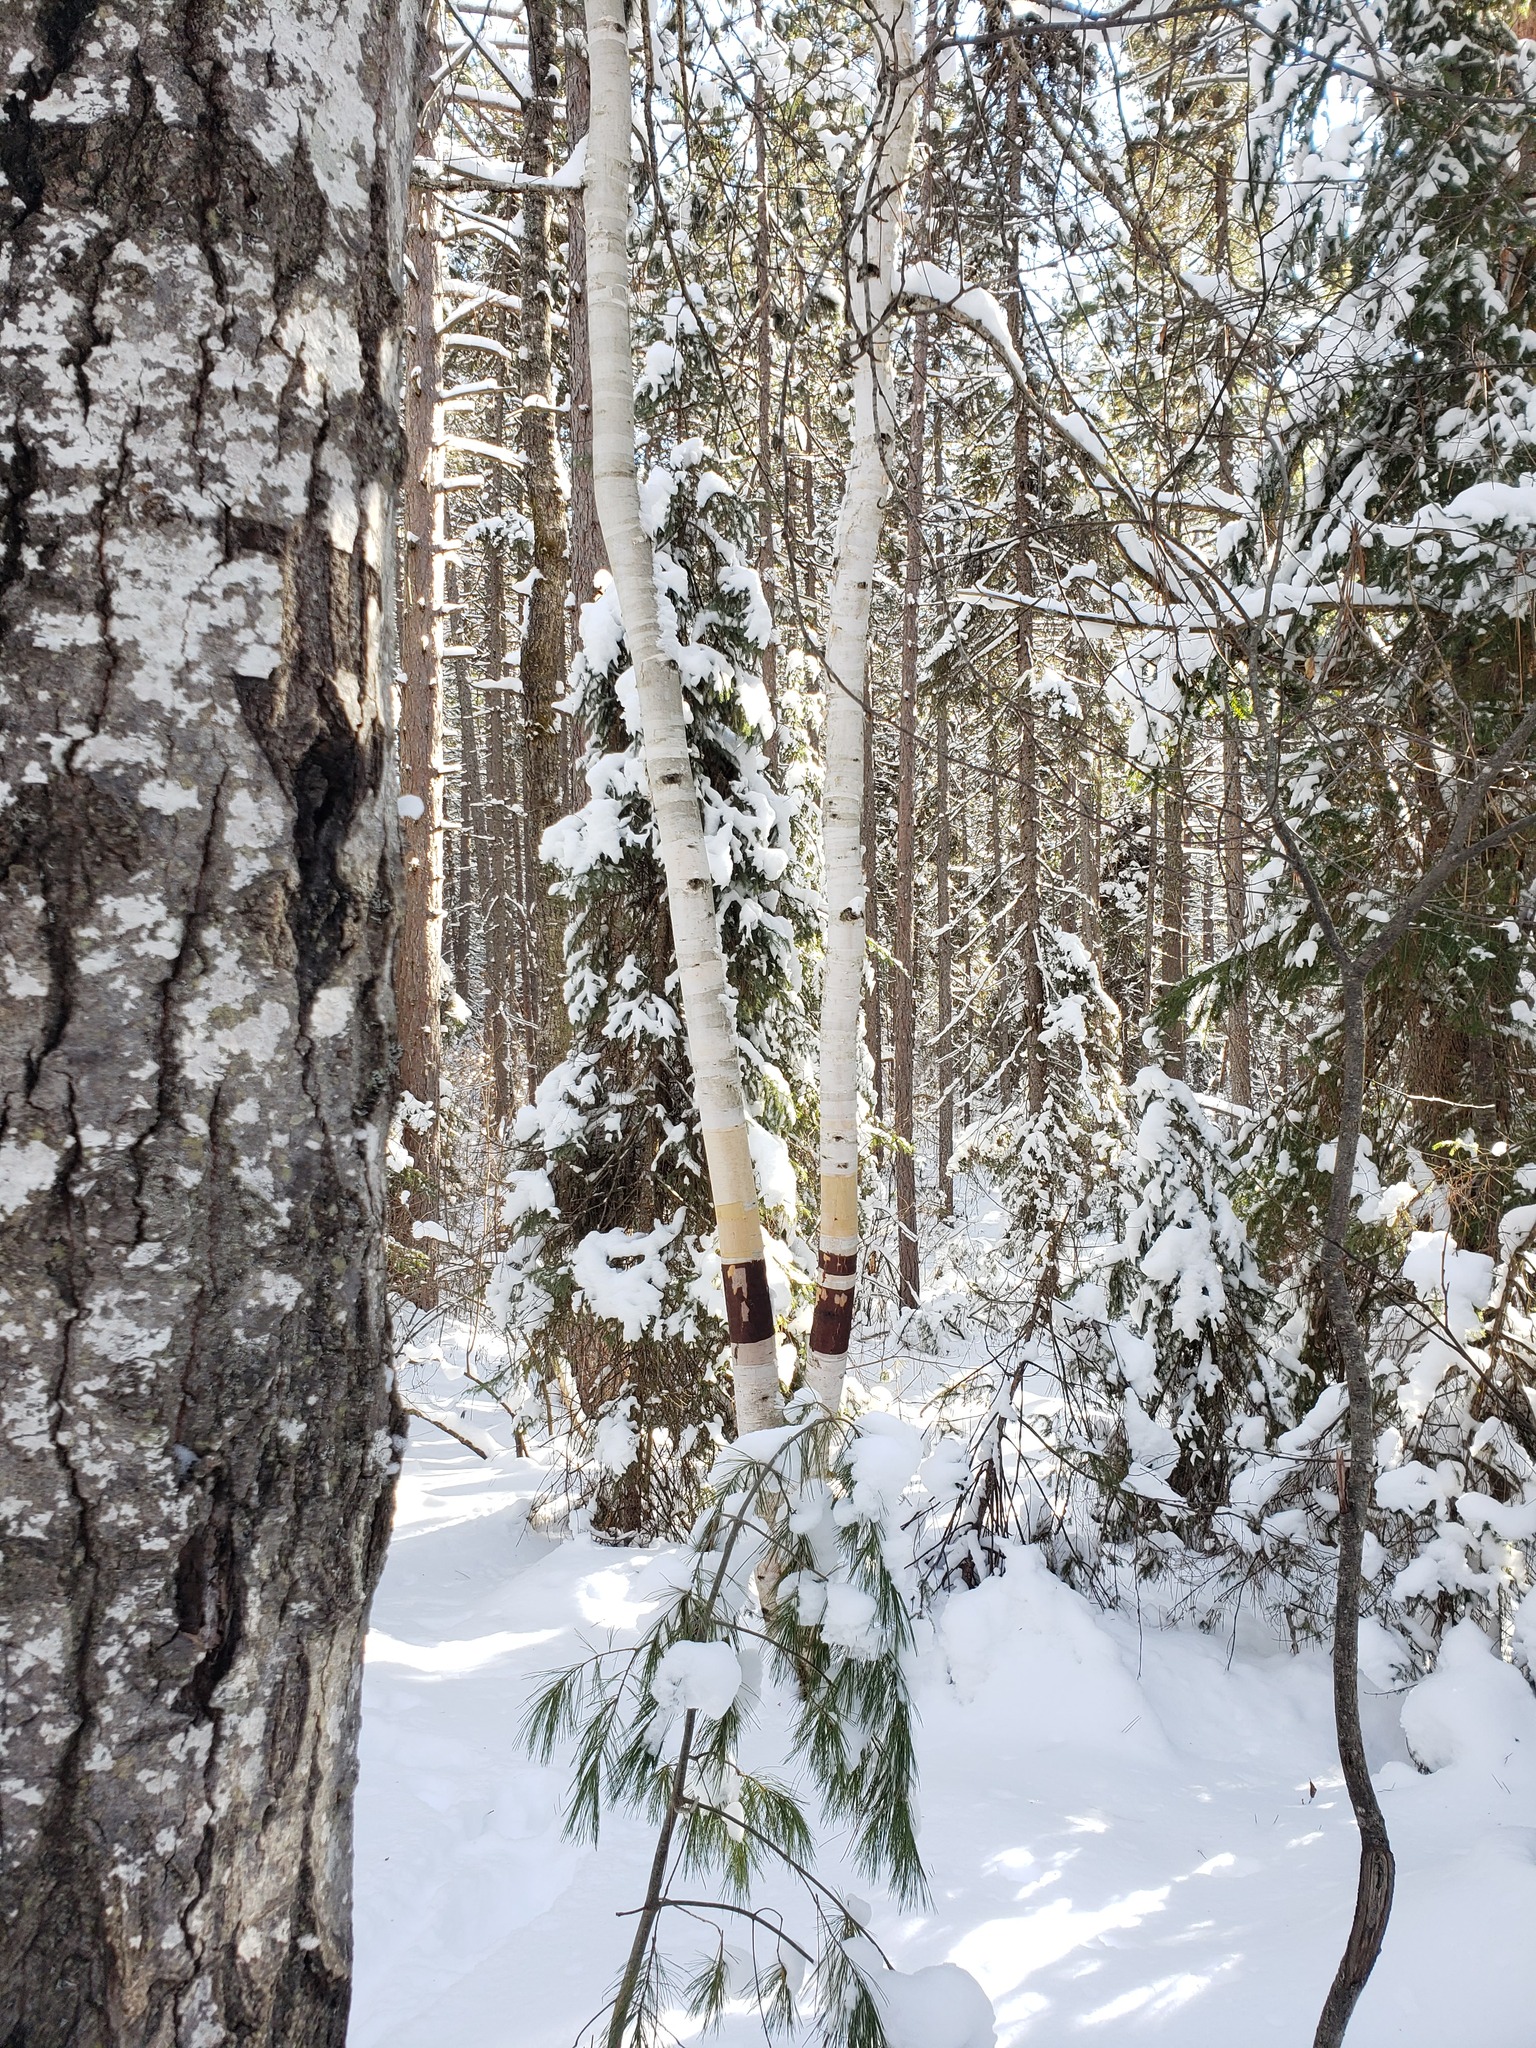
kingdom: Plantae
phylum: Tracheophyta
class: Magnoliopsida
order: Fagales
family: Betulaceae
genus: Betula
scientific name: Betula papyrifera
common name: Paper birch
